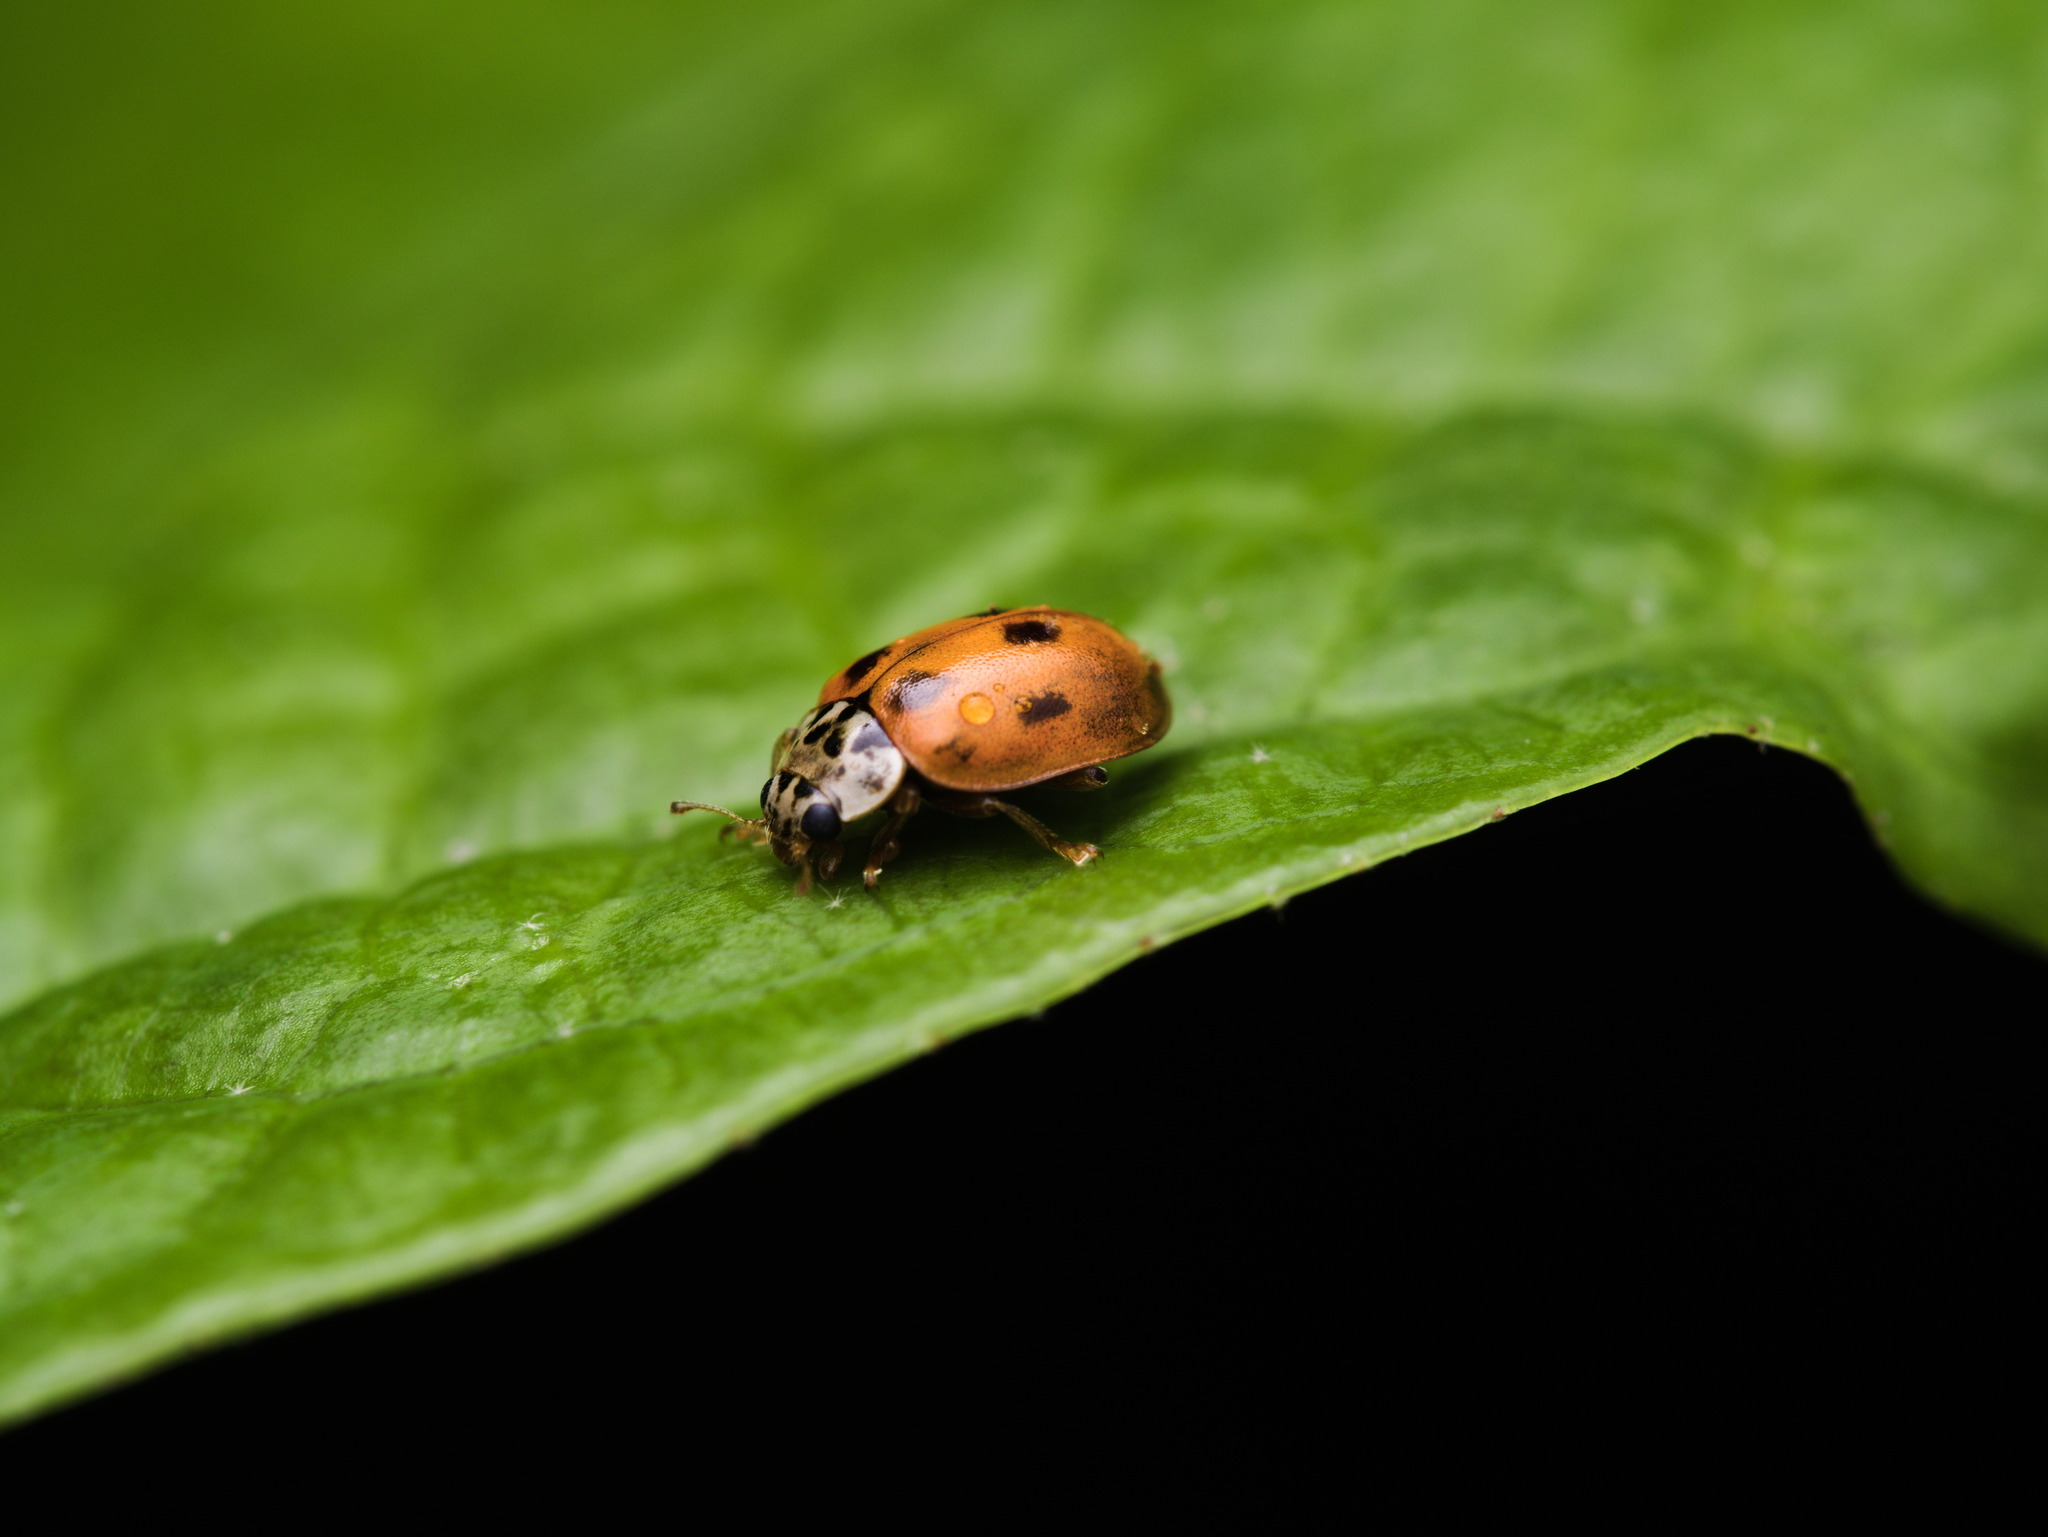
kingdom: Animalia
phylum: Arthropoda
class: Insecta
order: Coleoptera
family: Coccinellidae
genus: Mulsantina
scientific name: Mulsantina
